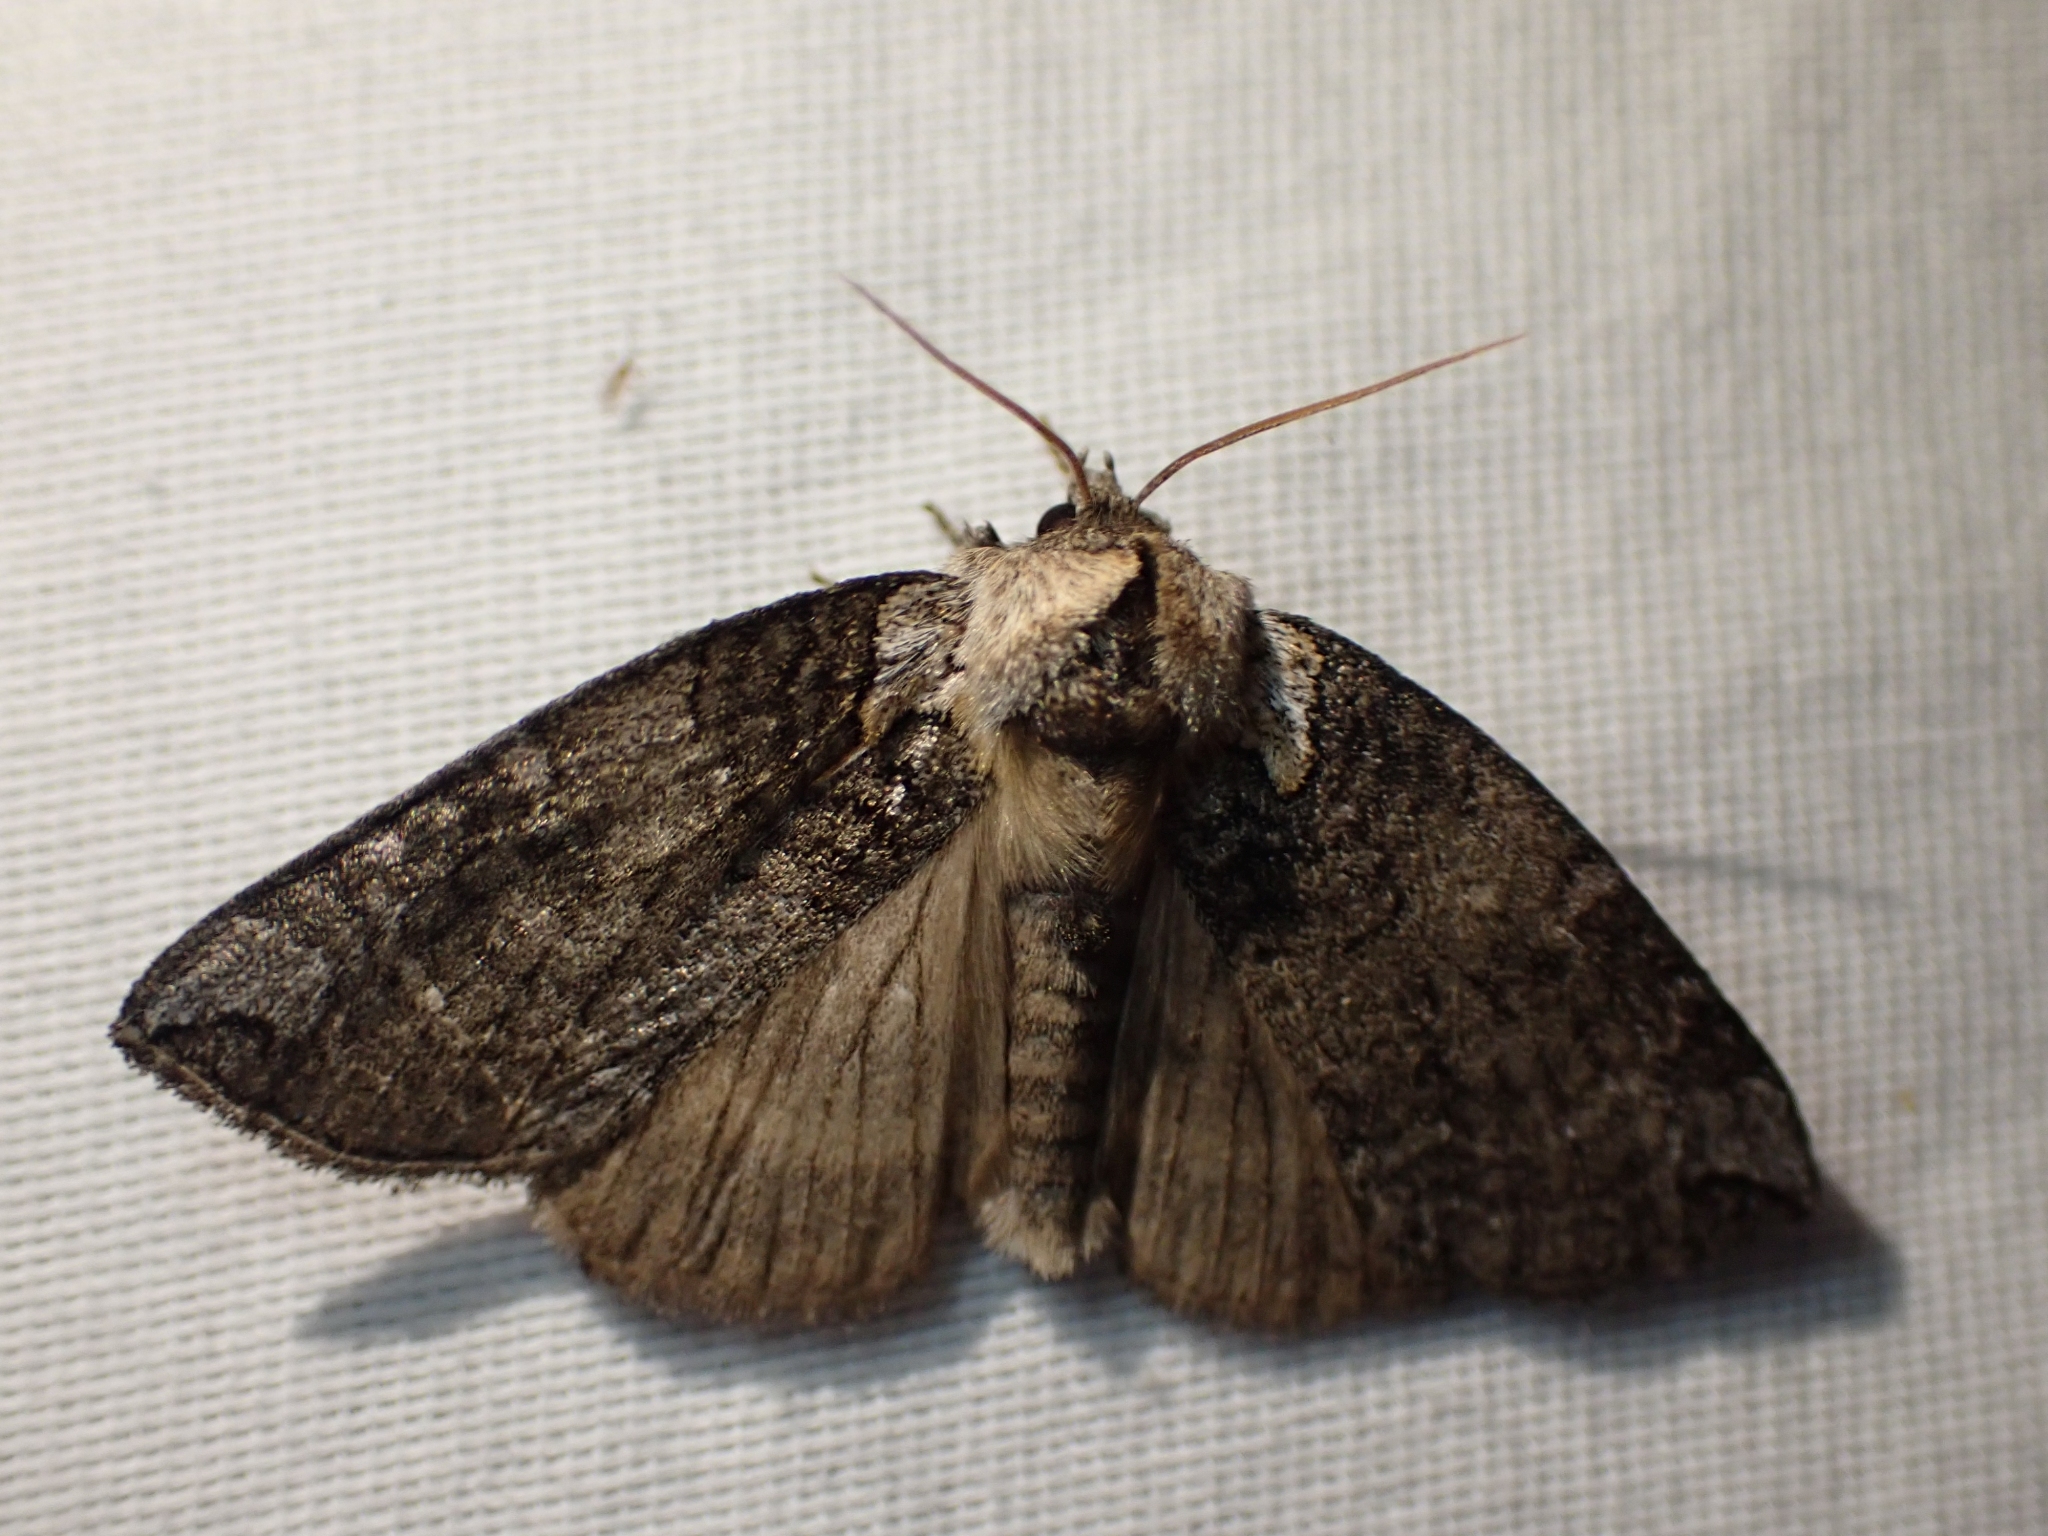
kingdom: Animalia
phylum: Arthropoda
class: Insecta
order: Lepidoptera
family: Drepanidae
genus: Euthyatira
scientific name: Euthyatira semicircularis
